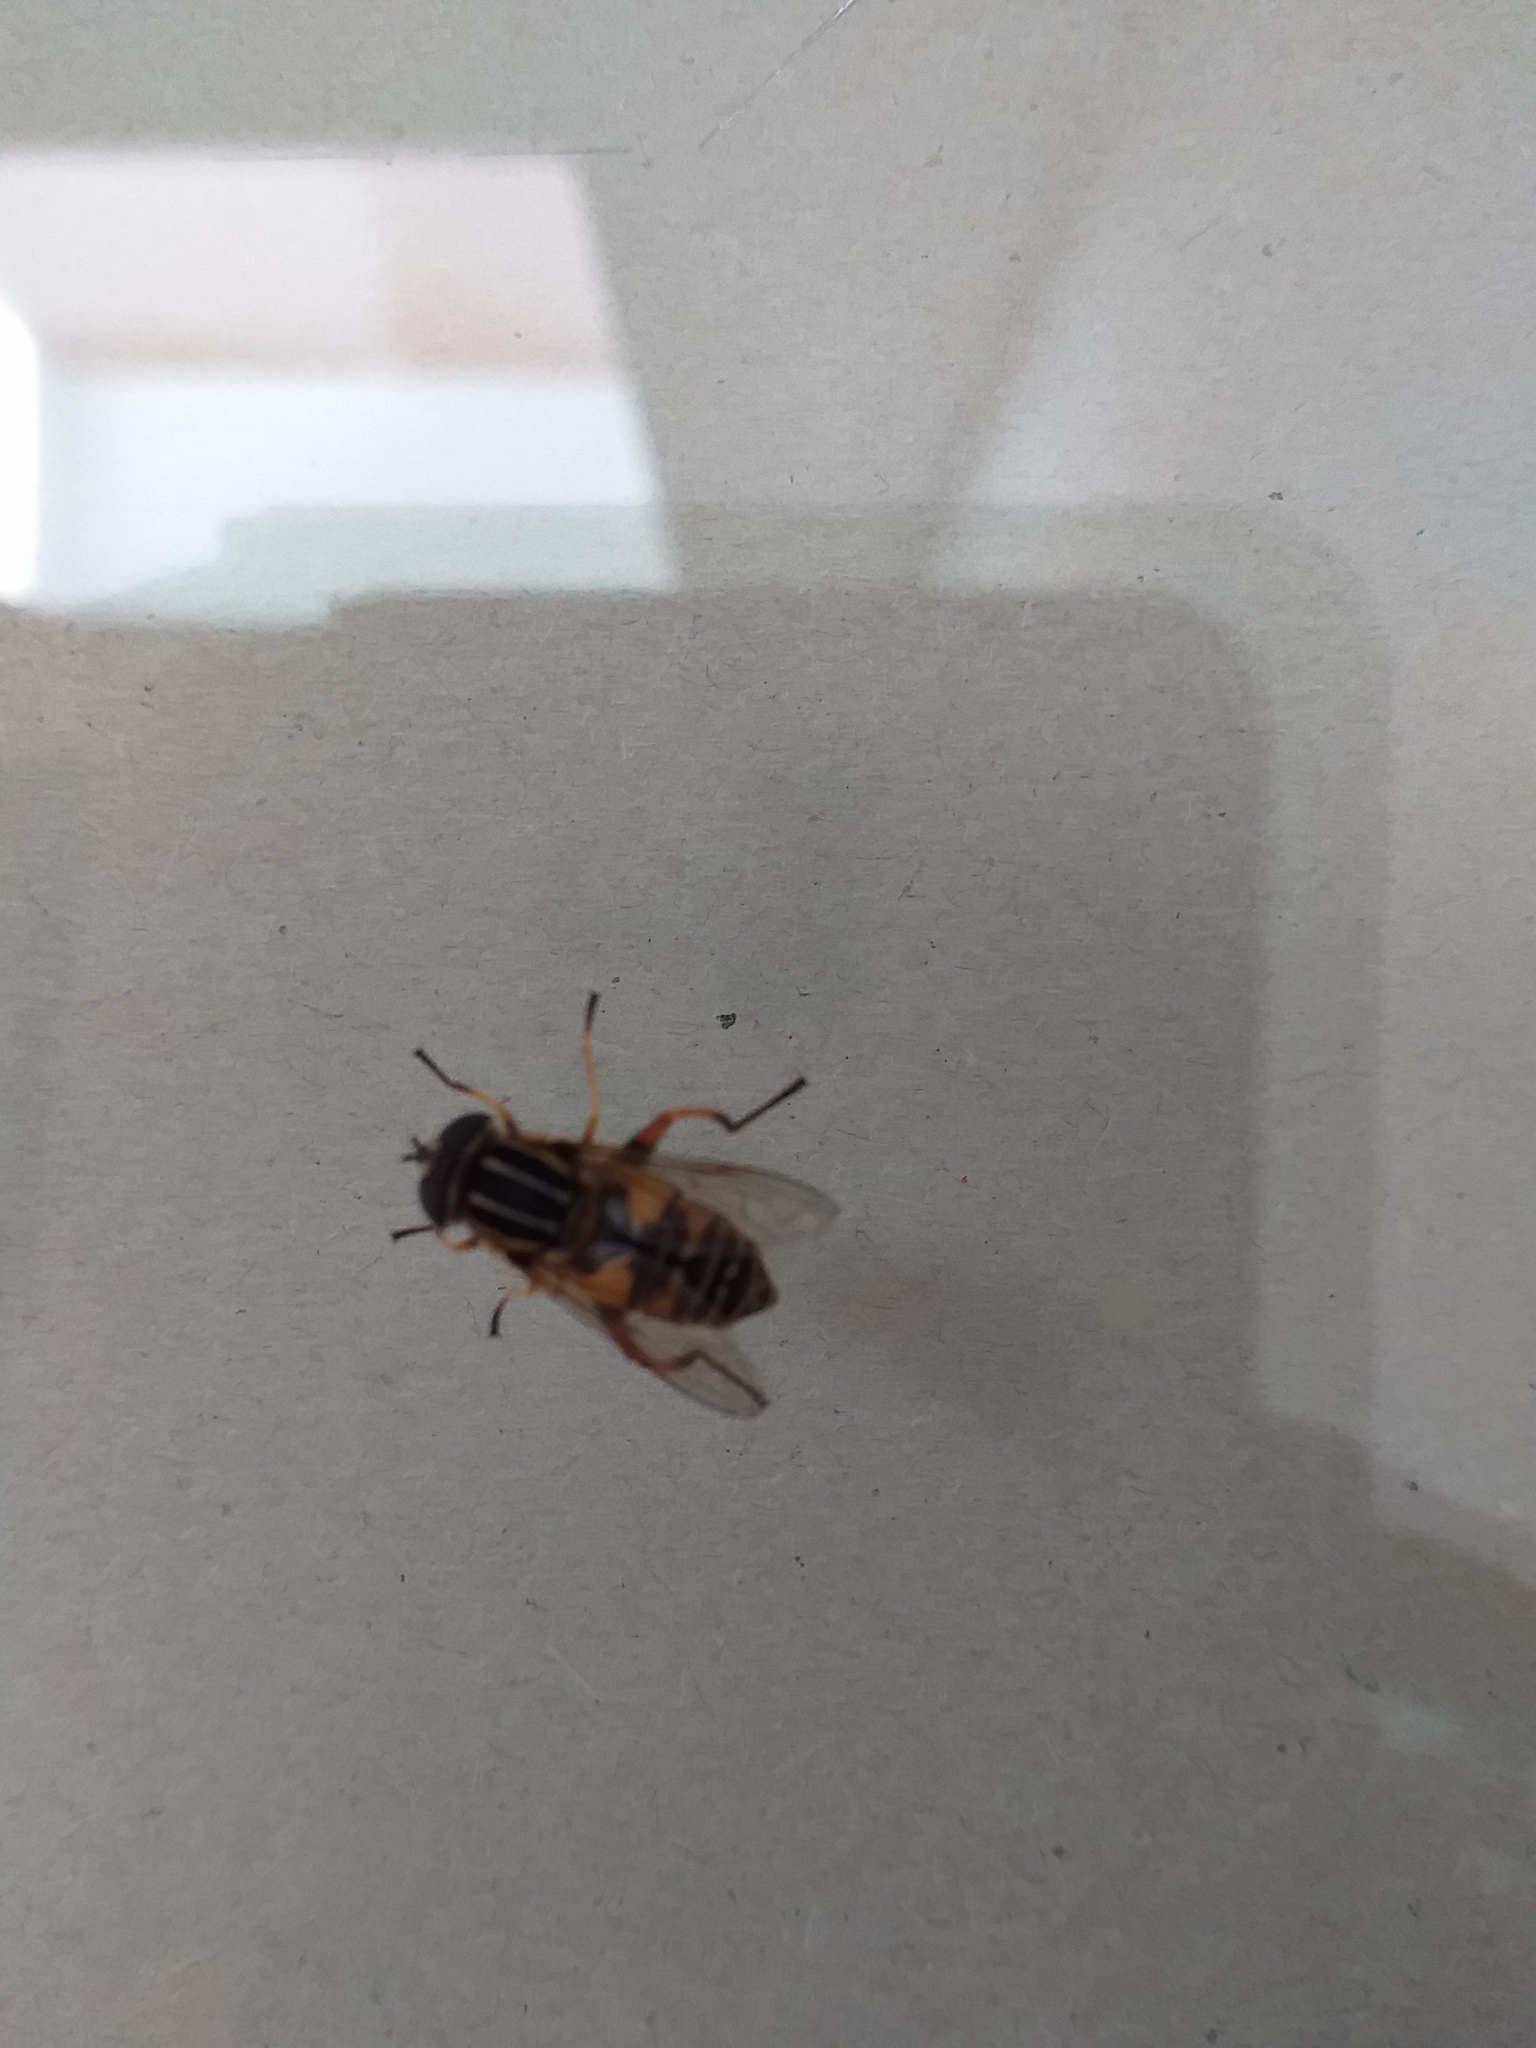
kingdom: Animalia
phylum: Arthropoda
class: Insecta
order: Diptera
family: Syrphidae
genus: Helophilus
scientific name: Helophilus pendulus
